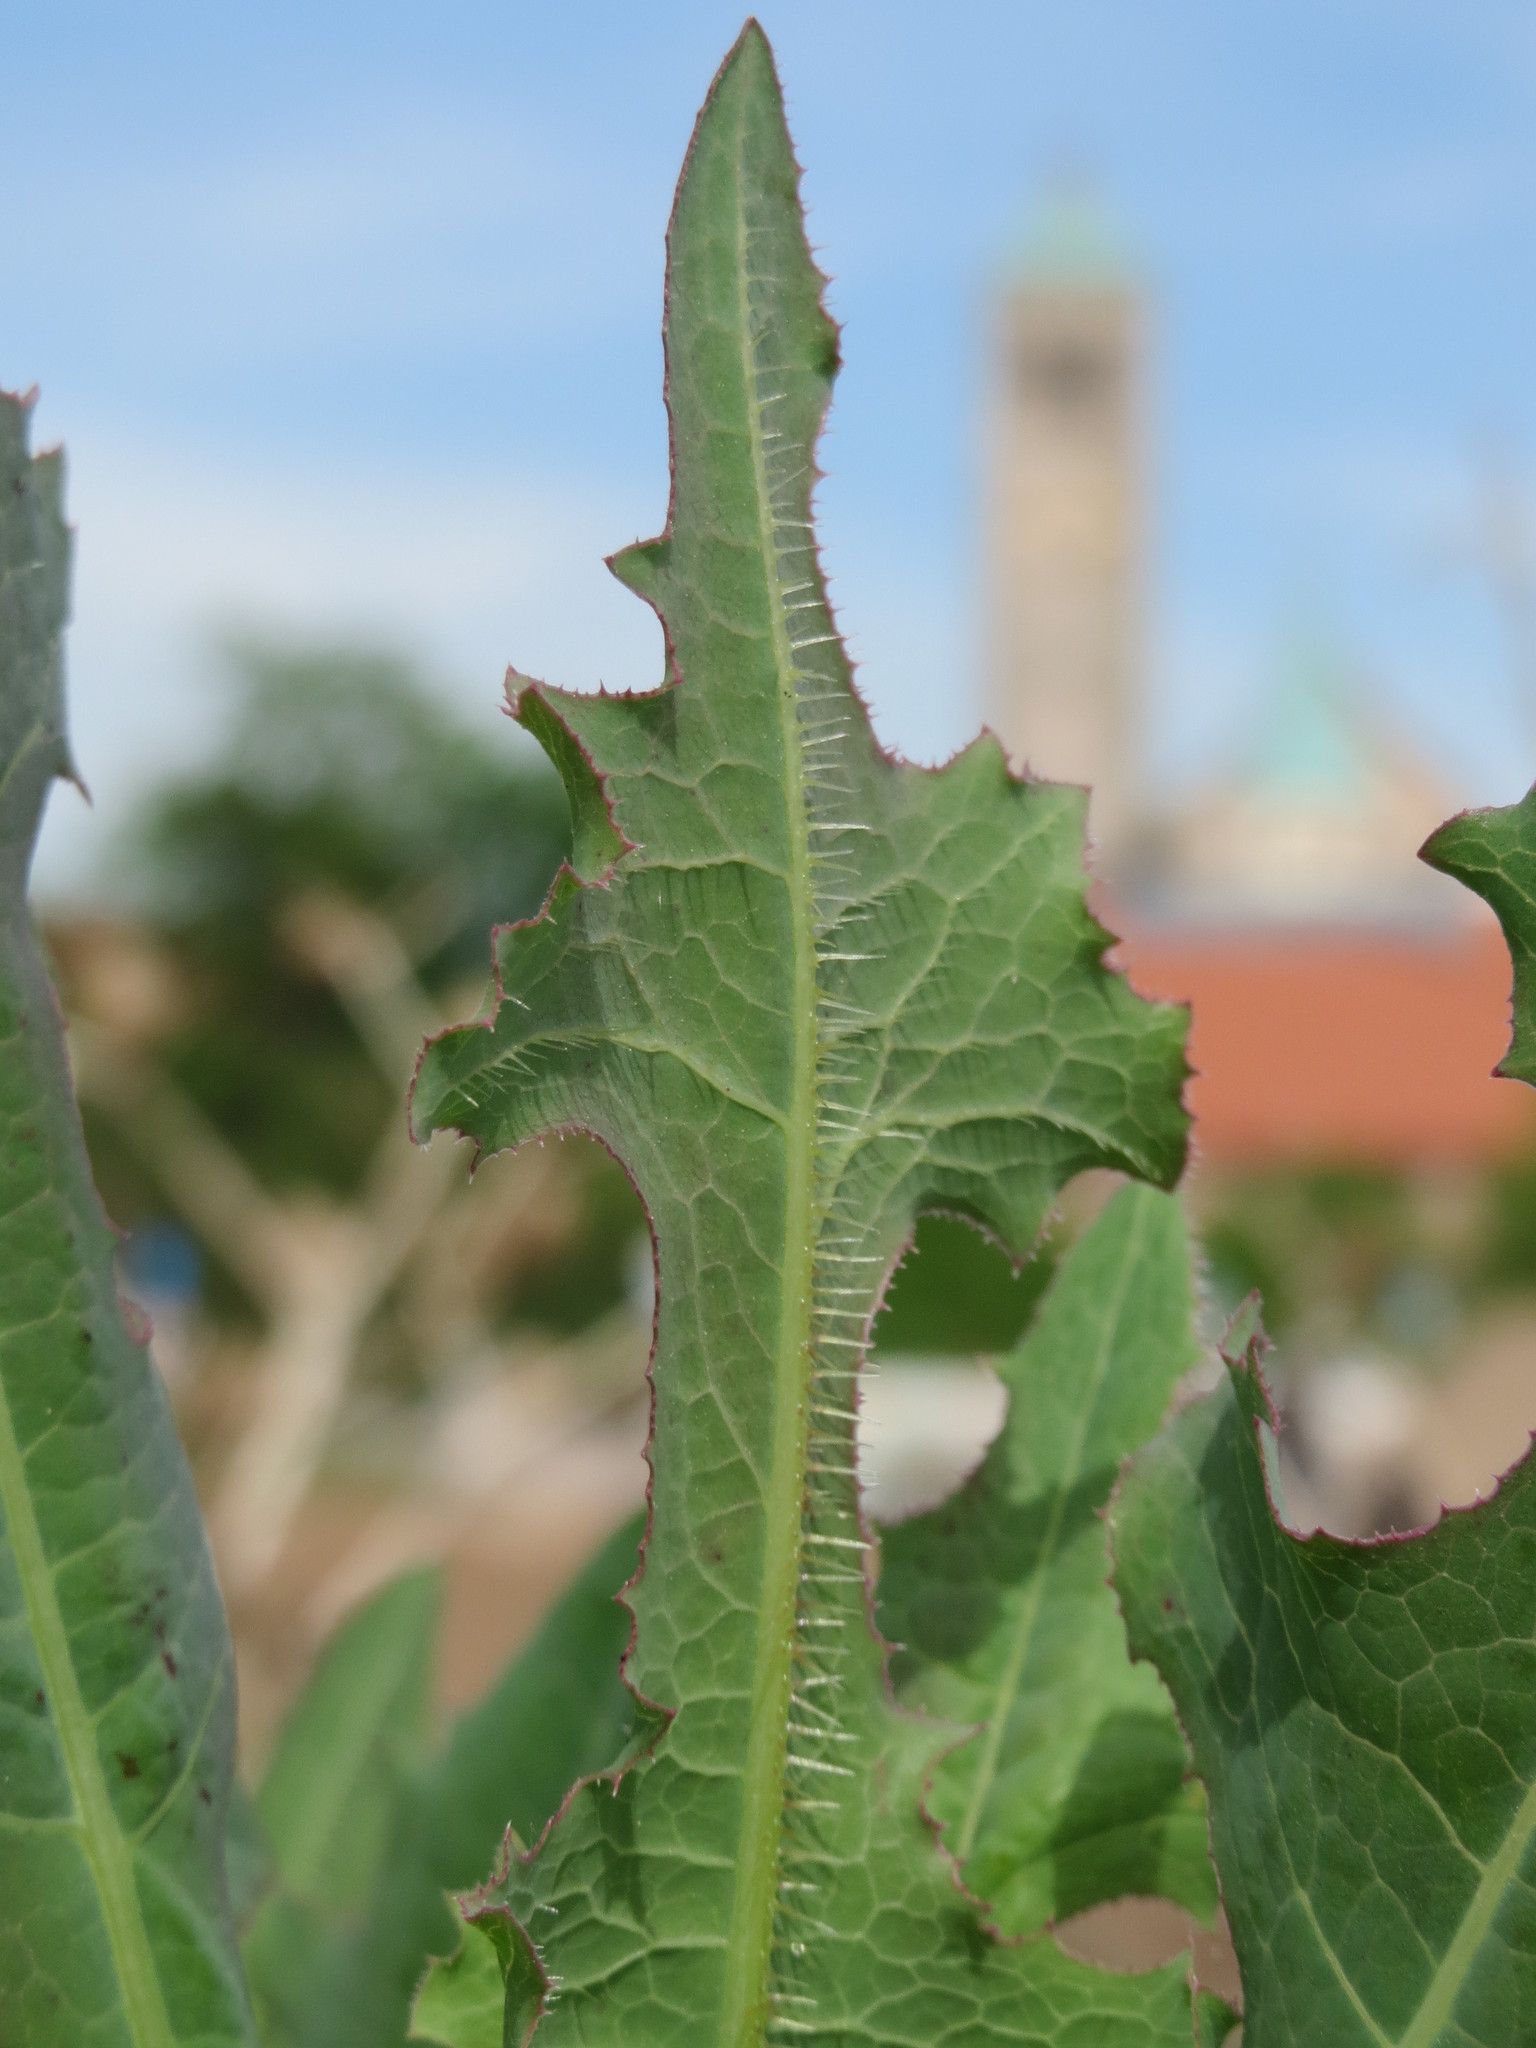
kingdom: Plantae
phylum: Tracheophyta
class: Magnoliopsida
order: Asterales
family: Asteraceae
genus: Lactuca
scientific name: Lactuca serriola
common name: Prickly lettuce
